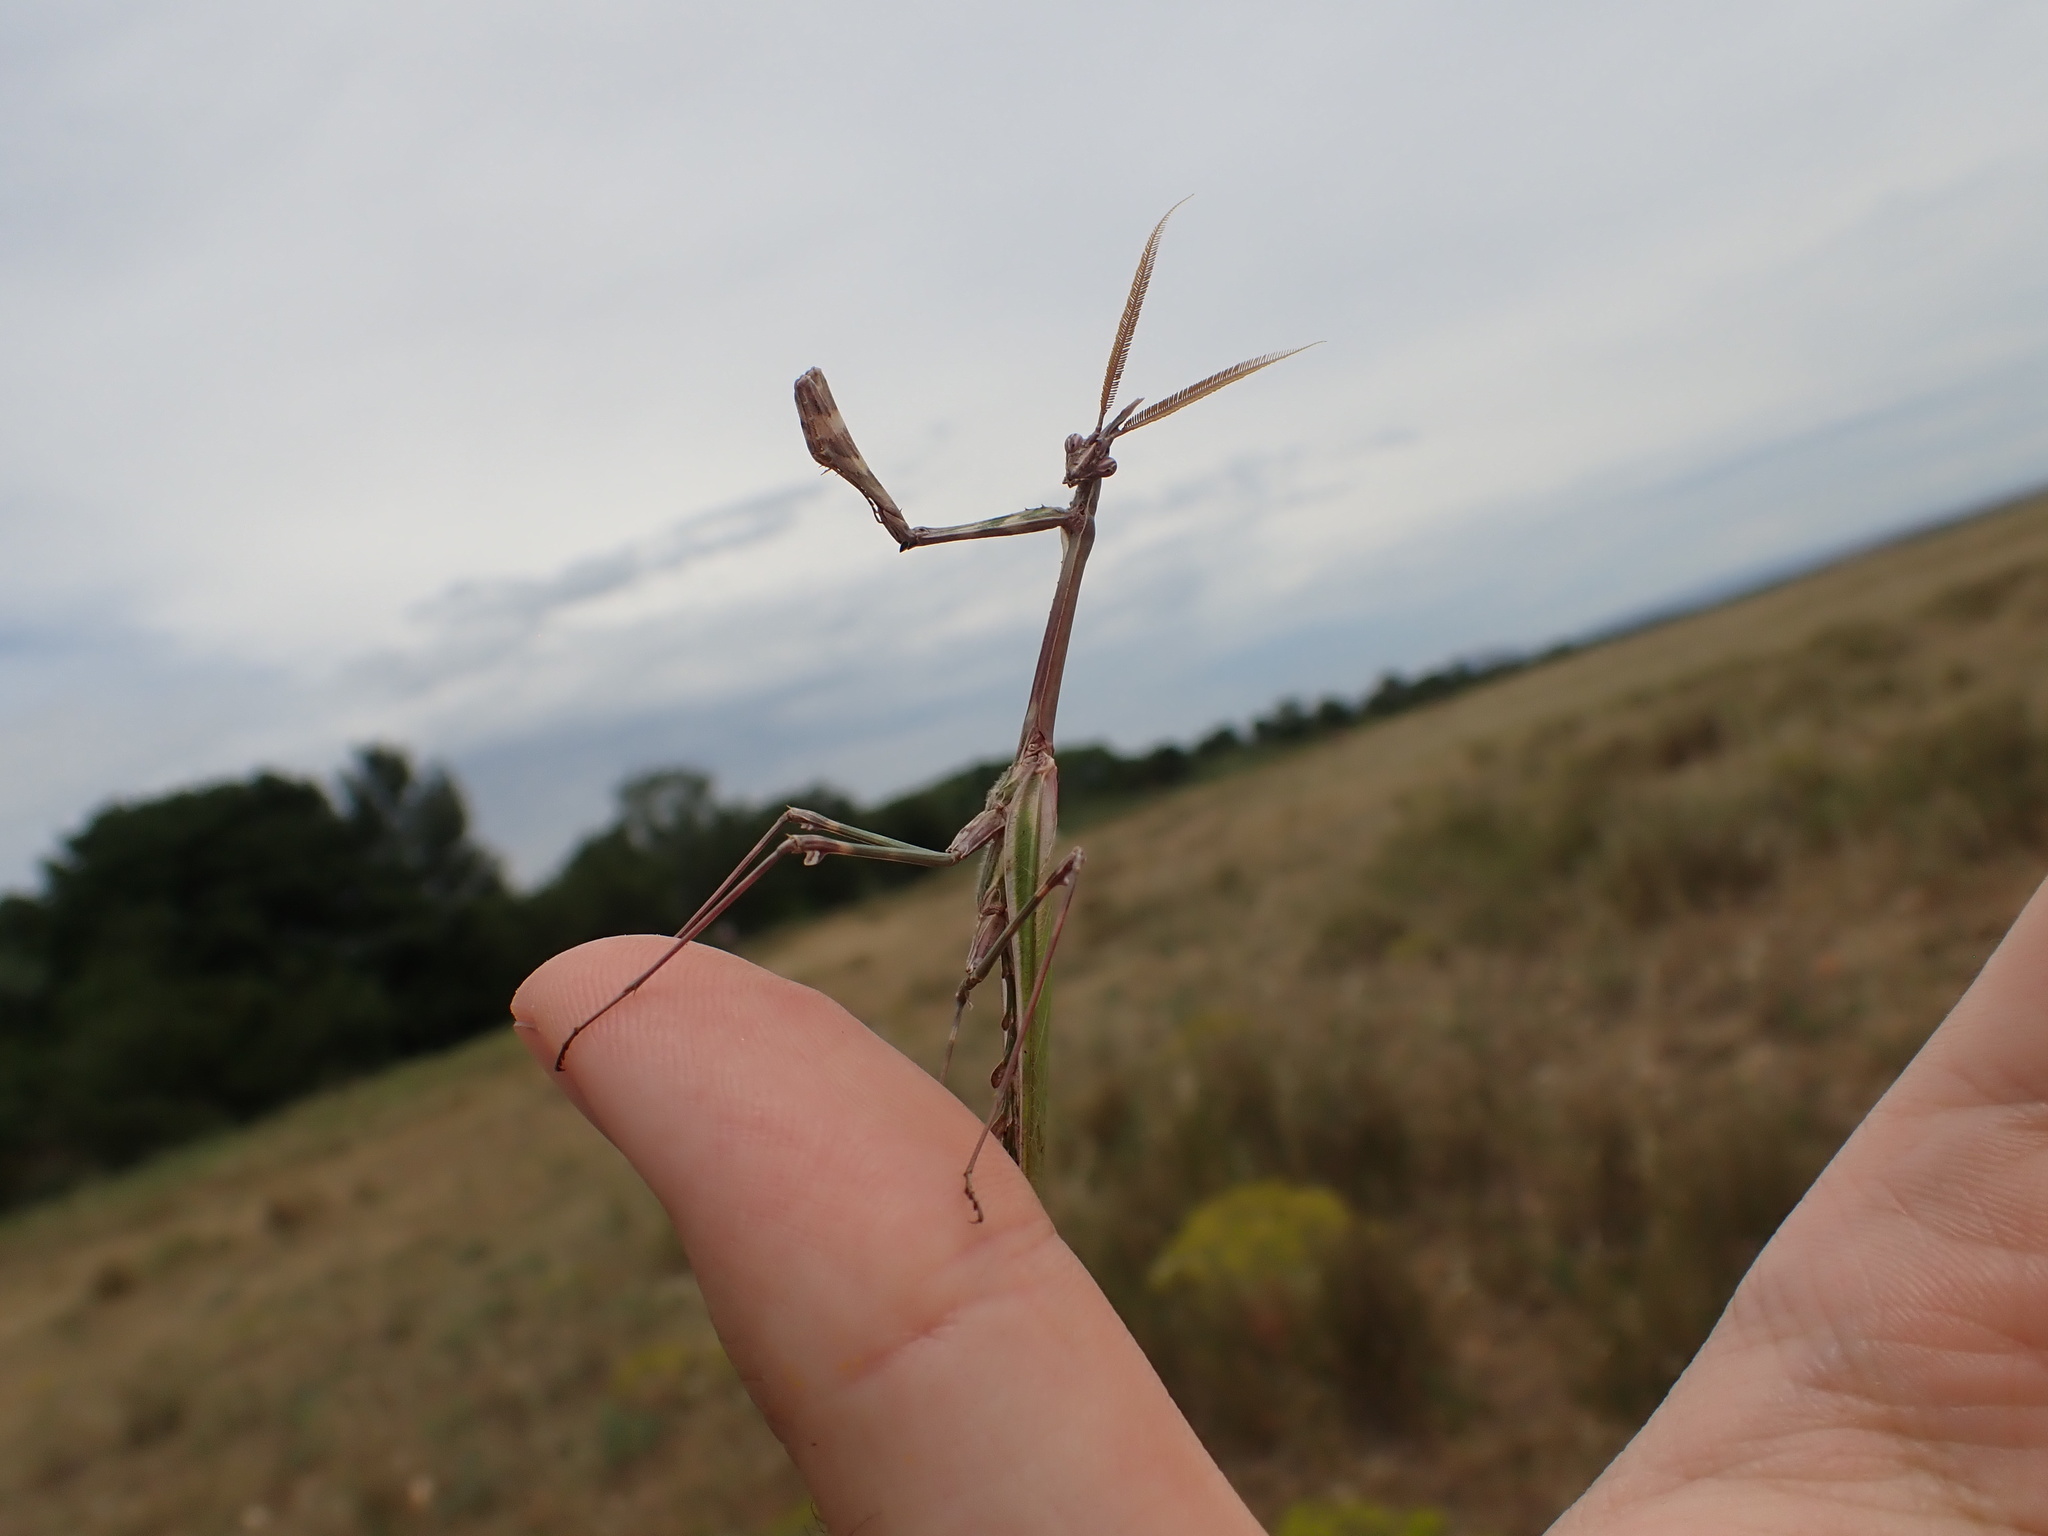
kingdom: Animalia
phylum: Arthropoda
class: Insecta
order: Mantodea
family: Empusidae
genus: Empusa
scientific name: Empusa pennata
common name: Conehead mantis
